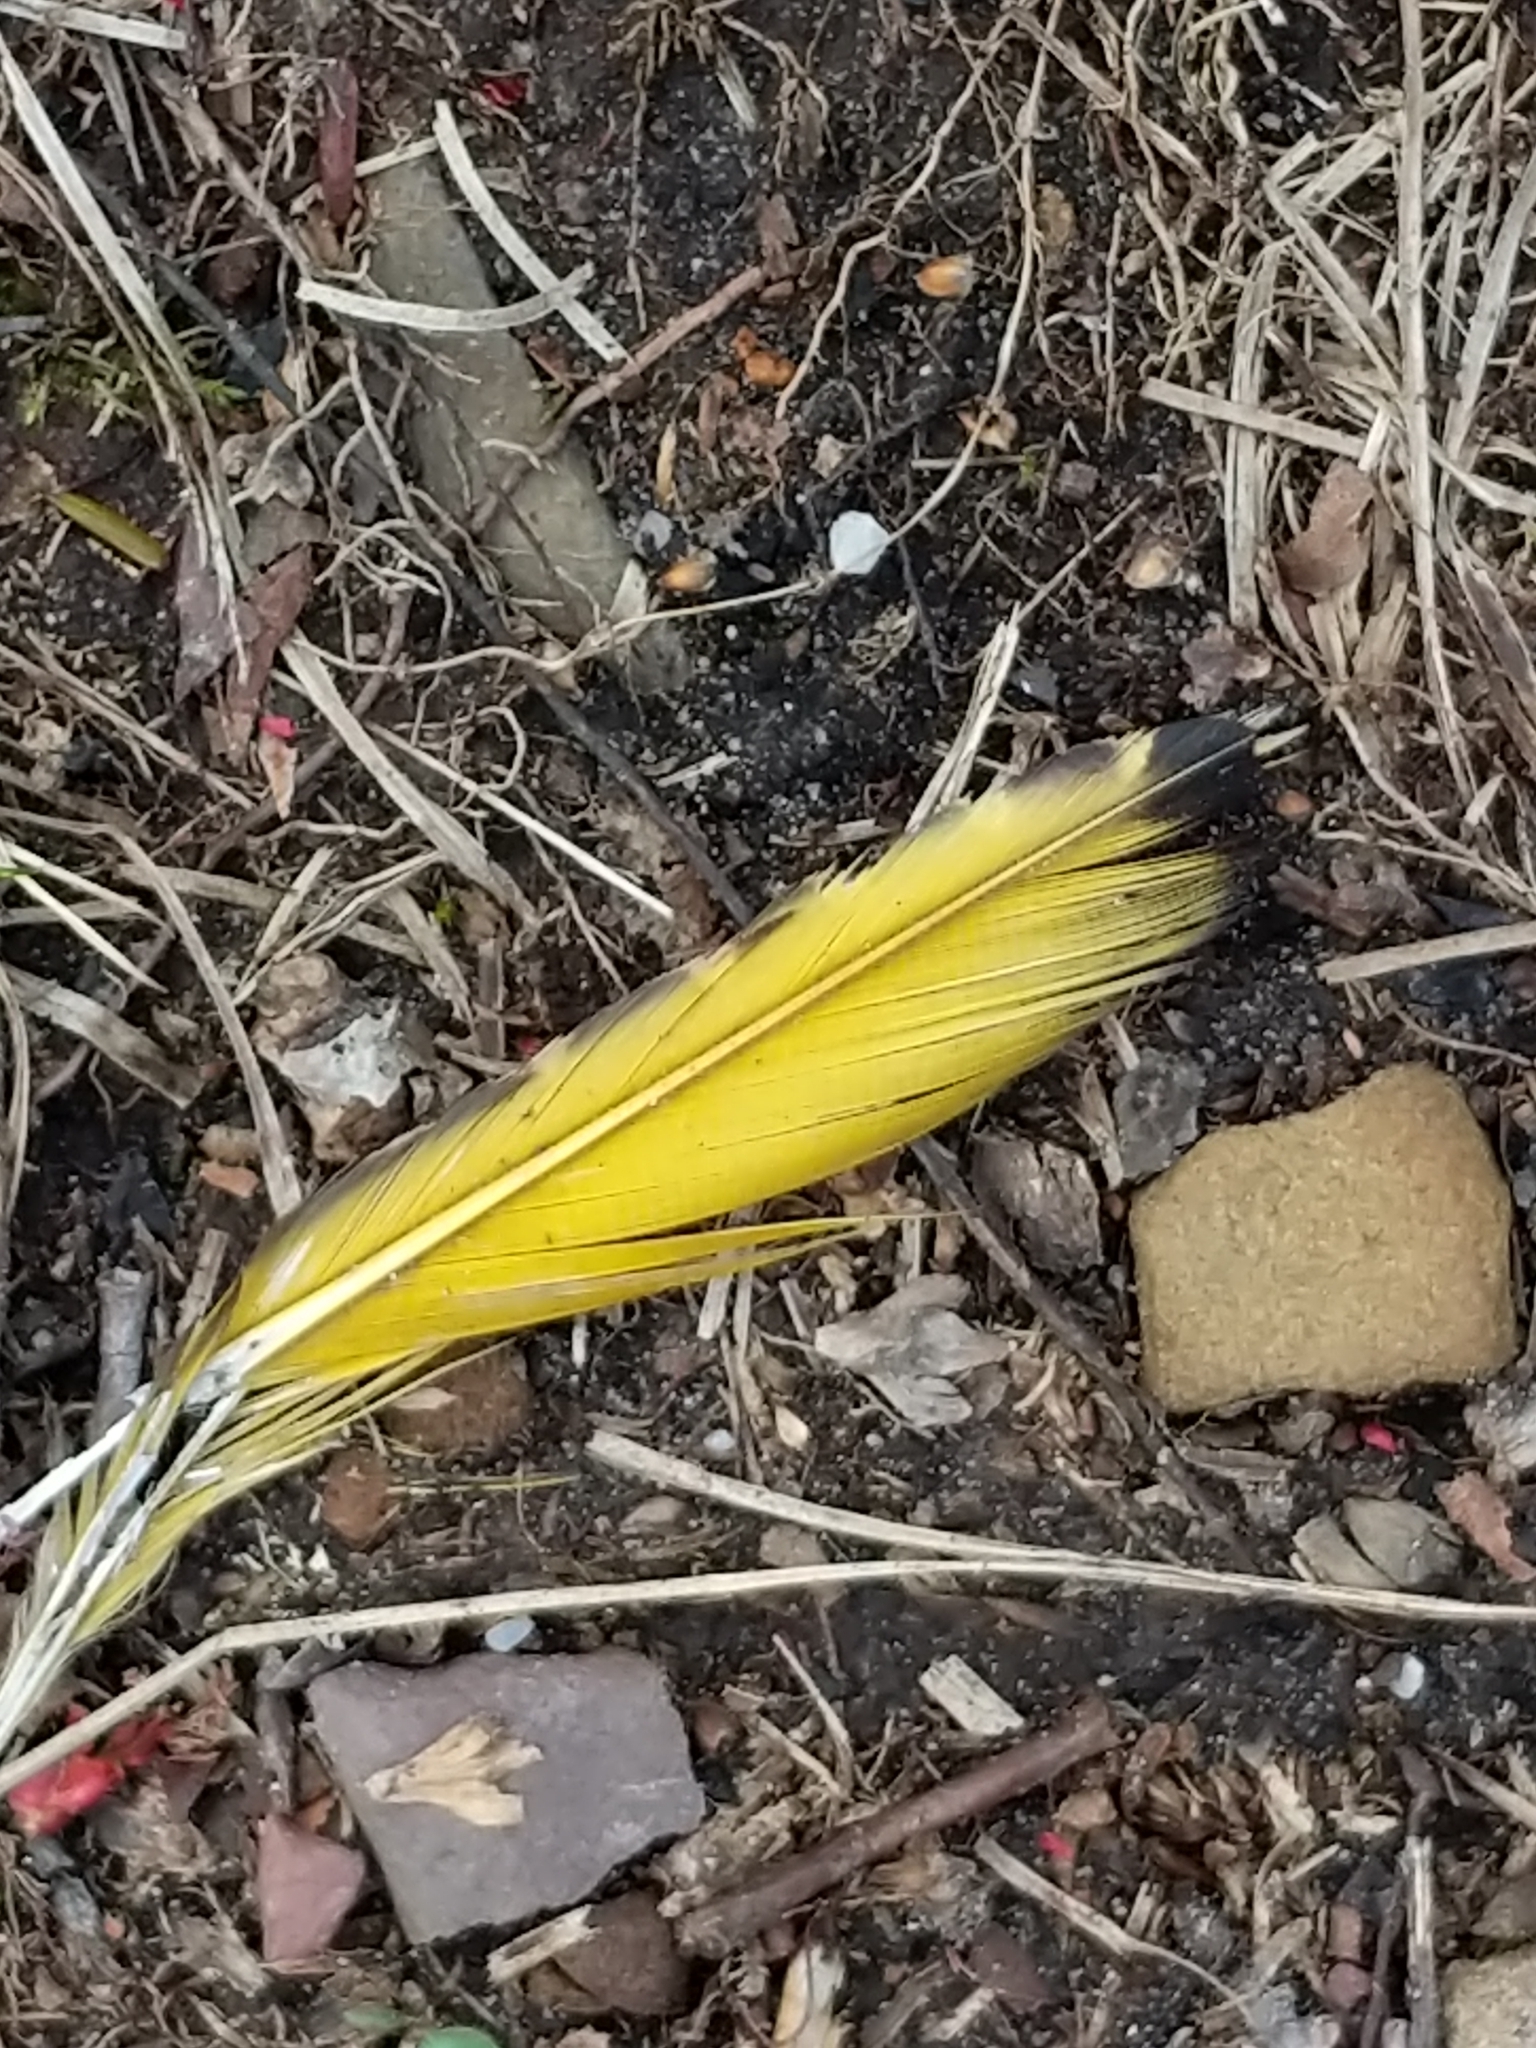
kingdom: Animalia
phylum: Chordata
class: Aves
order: Piciformes
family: Picidae
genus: Colaptes
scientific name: Colaptes auratus
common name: Northern flicker
